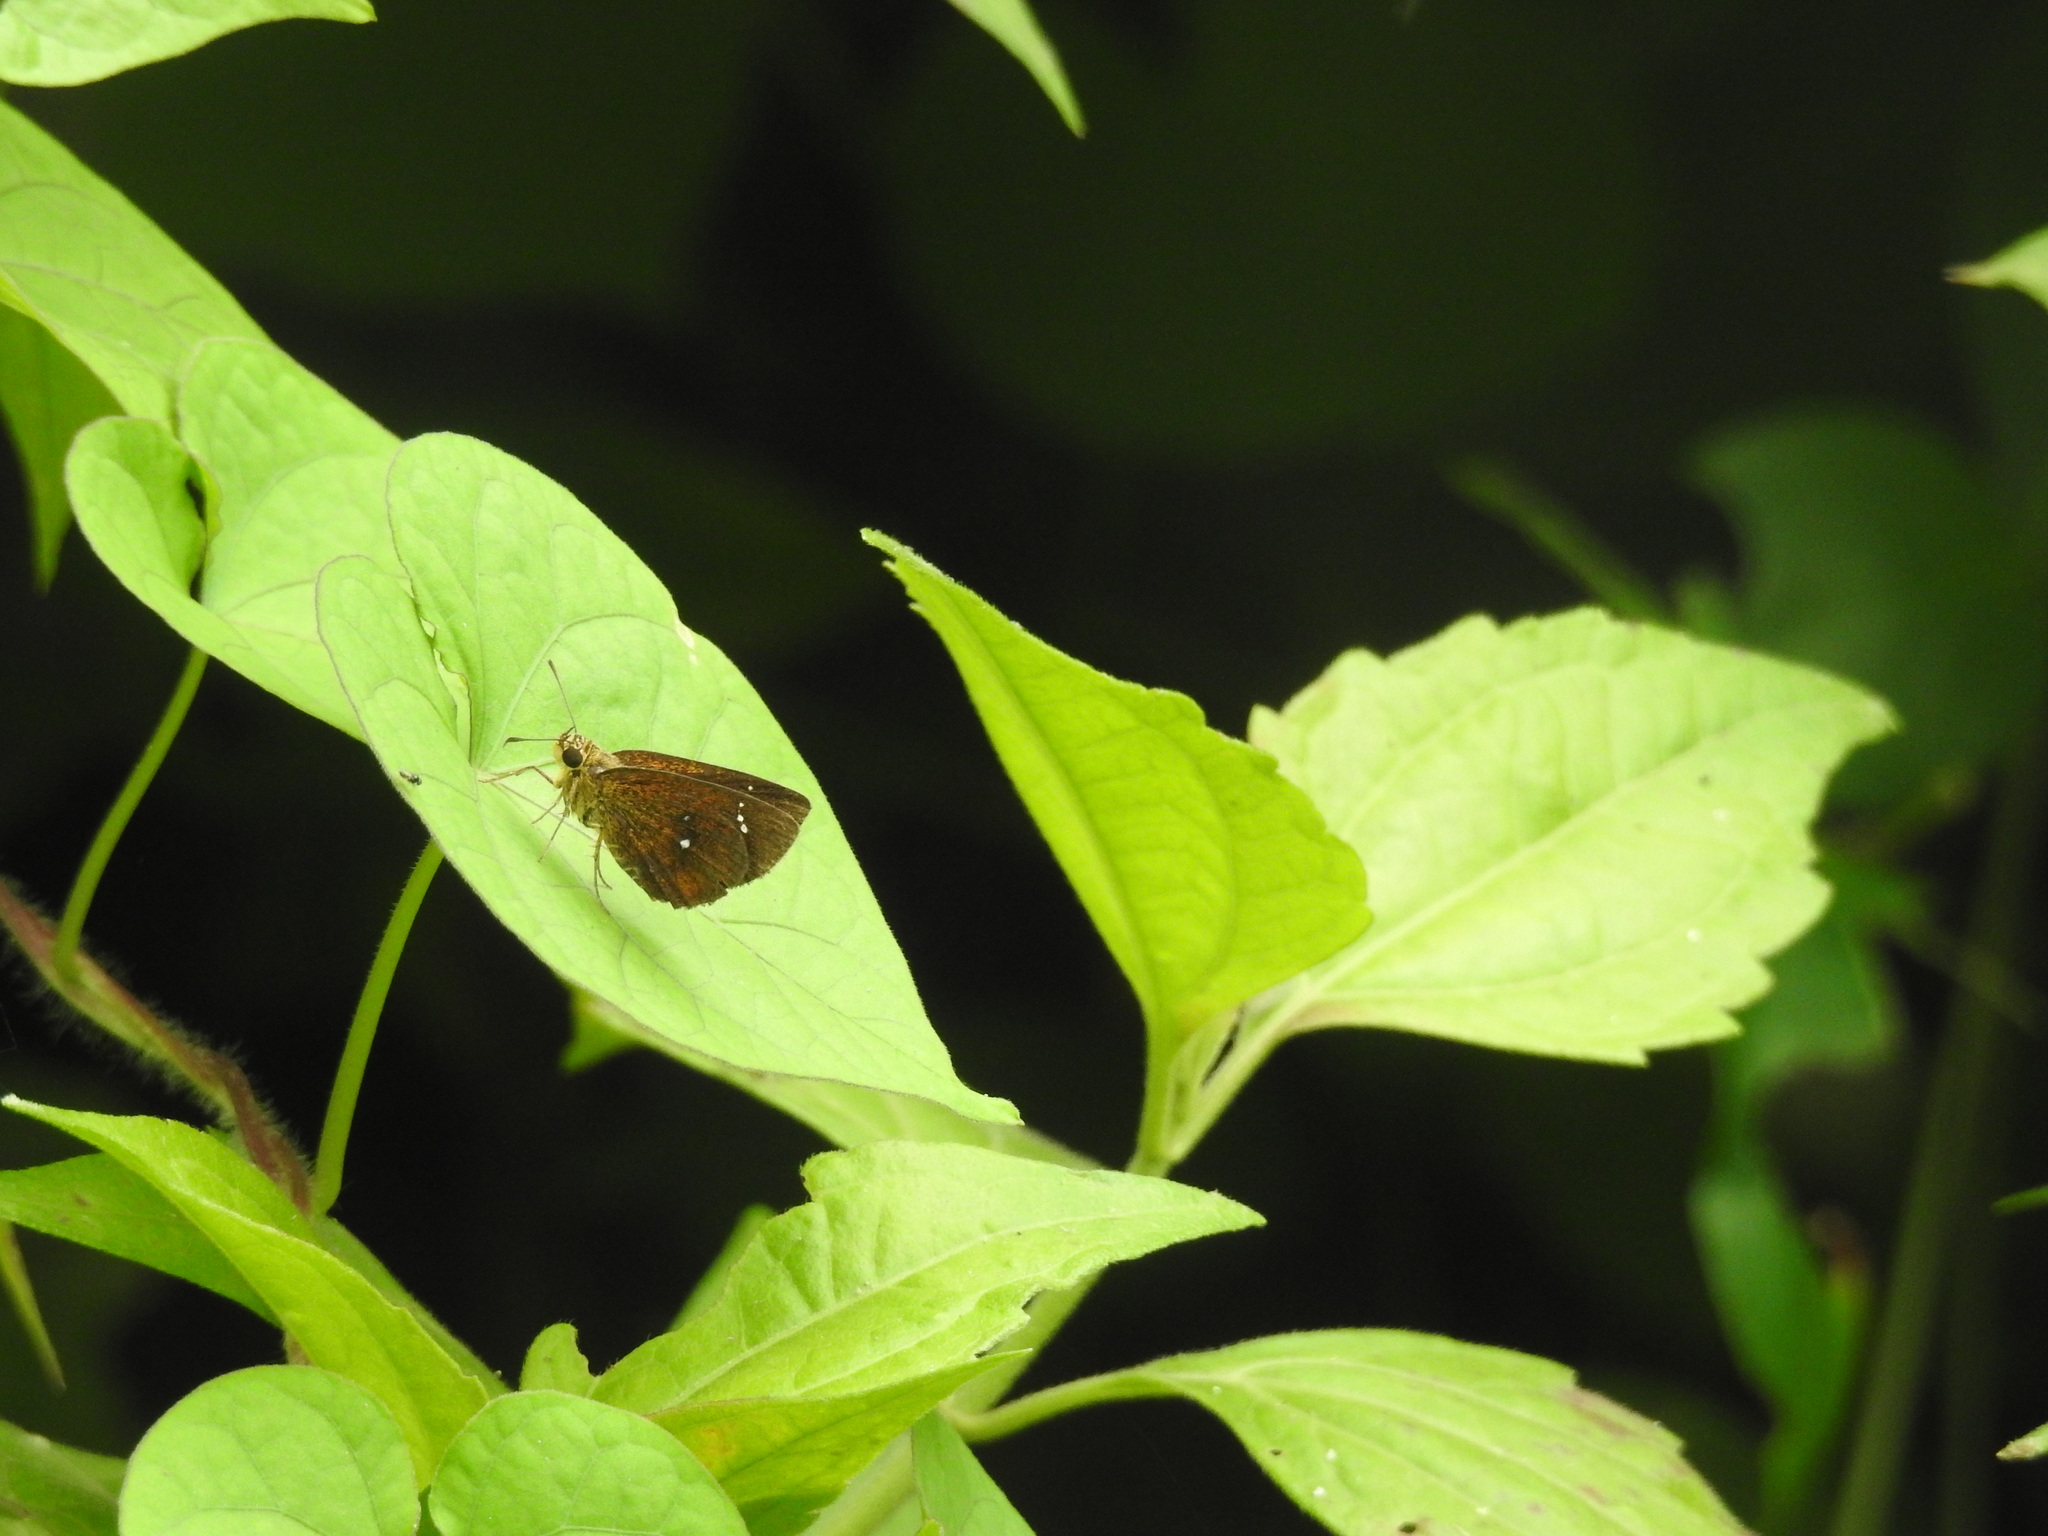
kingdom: Animalia
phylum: Arthropoda
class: Insecta
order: Lepidoptera
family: Hesperiidae
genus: Iambrix
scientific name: Iambrix salsala
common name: Chestnut bob
